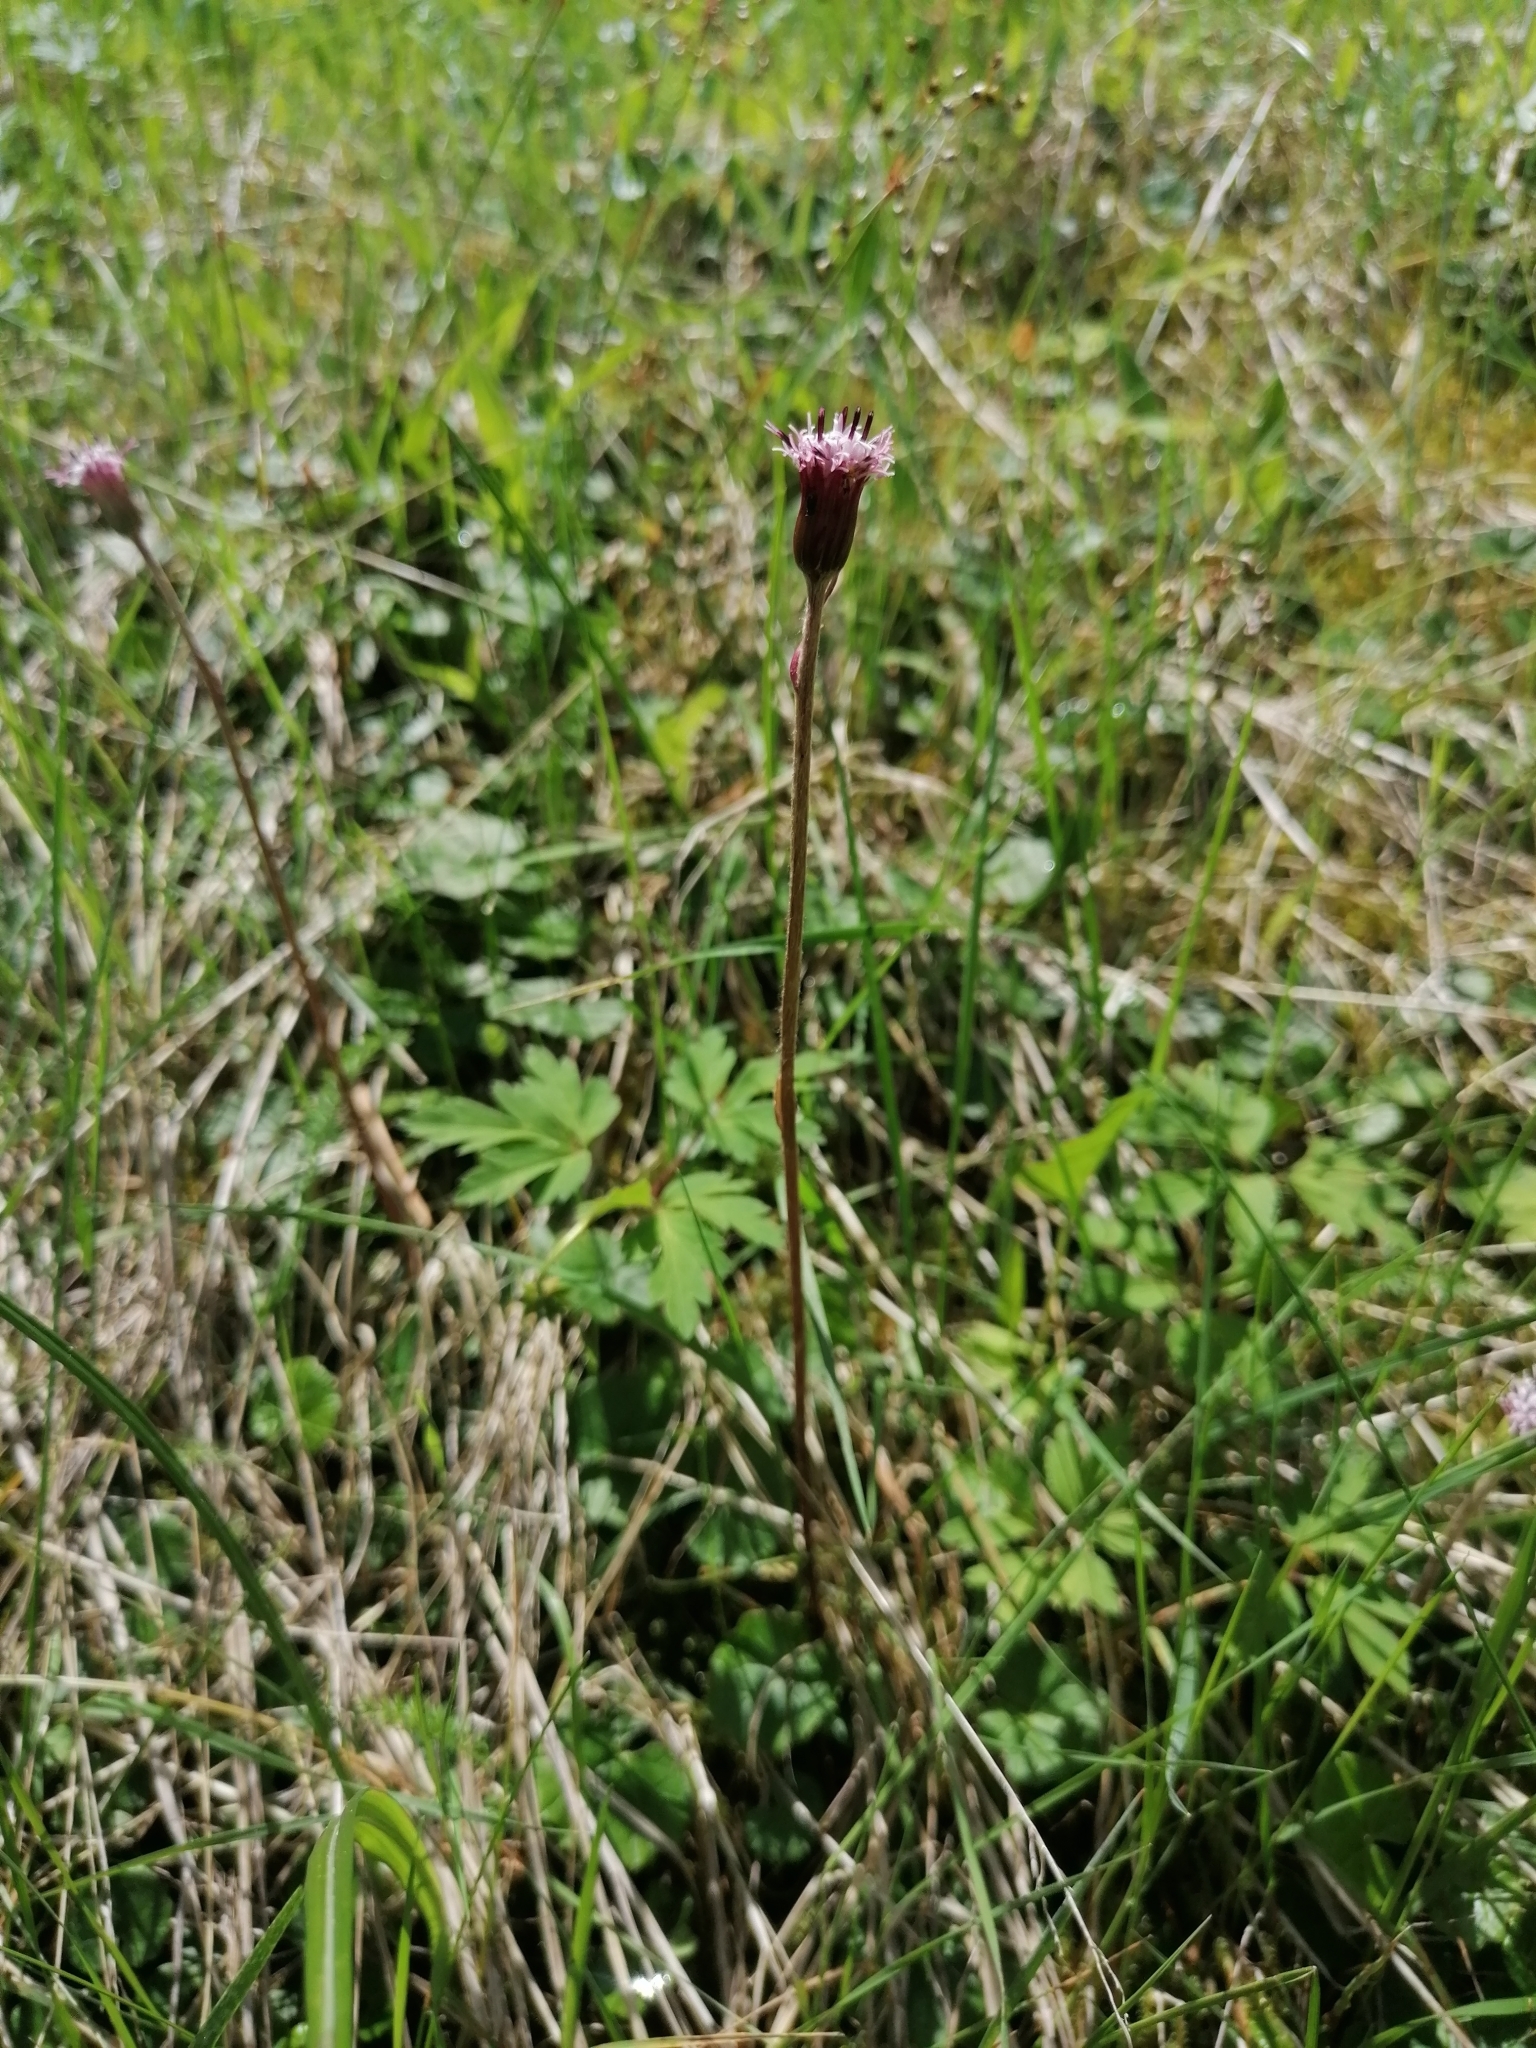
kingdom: Plantae
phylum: Tracheophyta
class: Magnoliopsida
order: Asterales
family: Asteraceae
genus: Homogyne
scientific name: Homogyne alpina
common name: Purple colt's-foot
